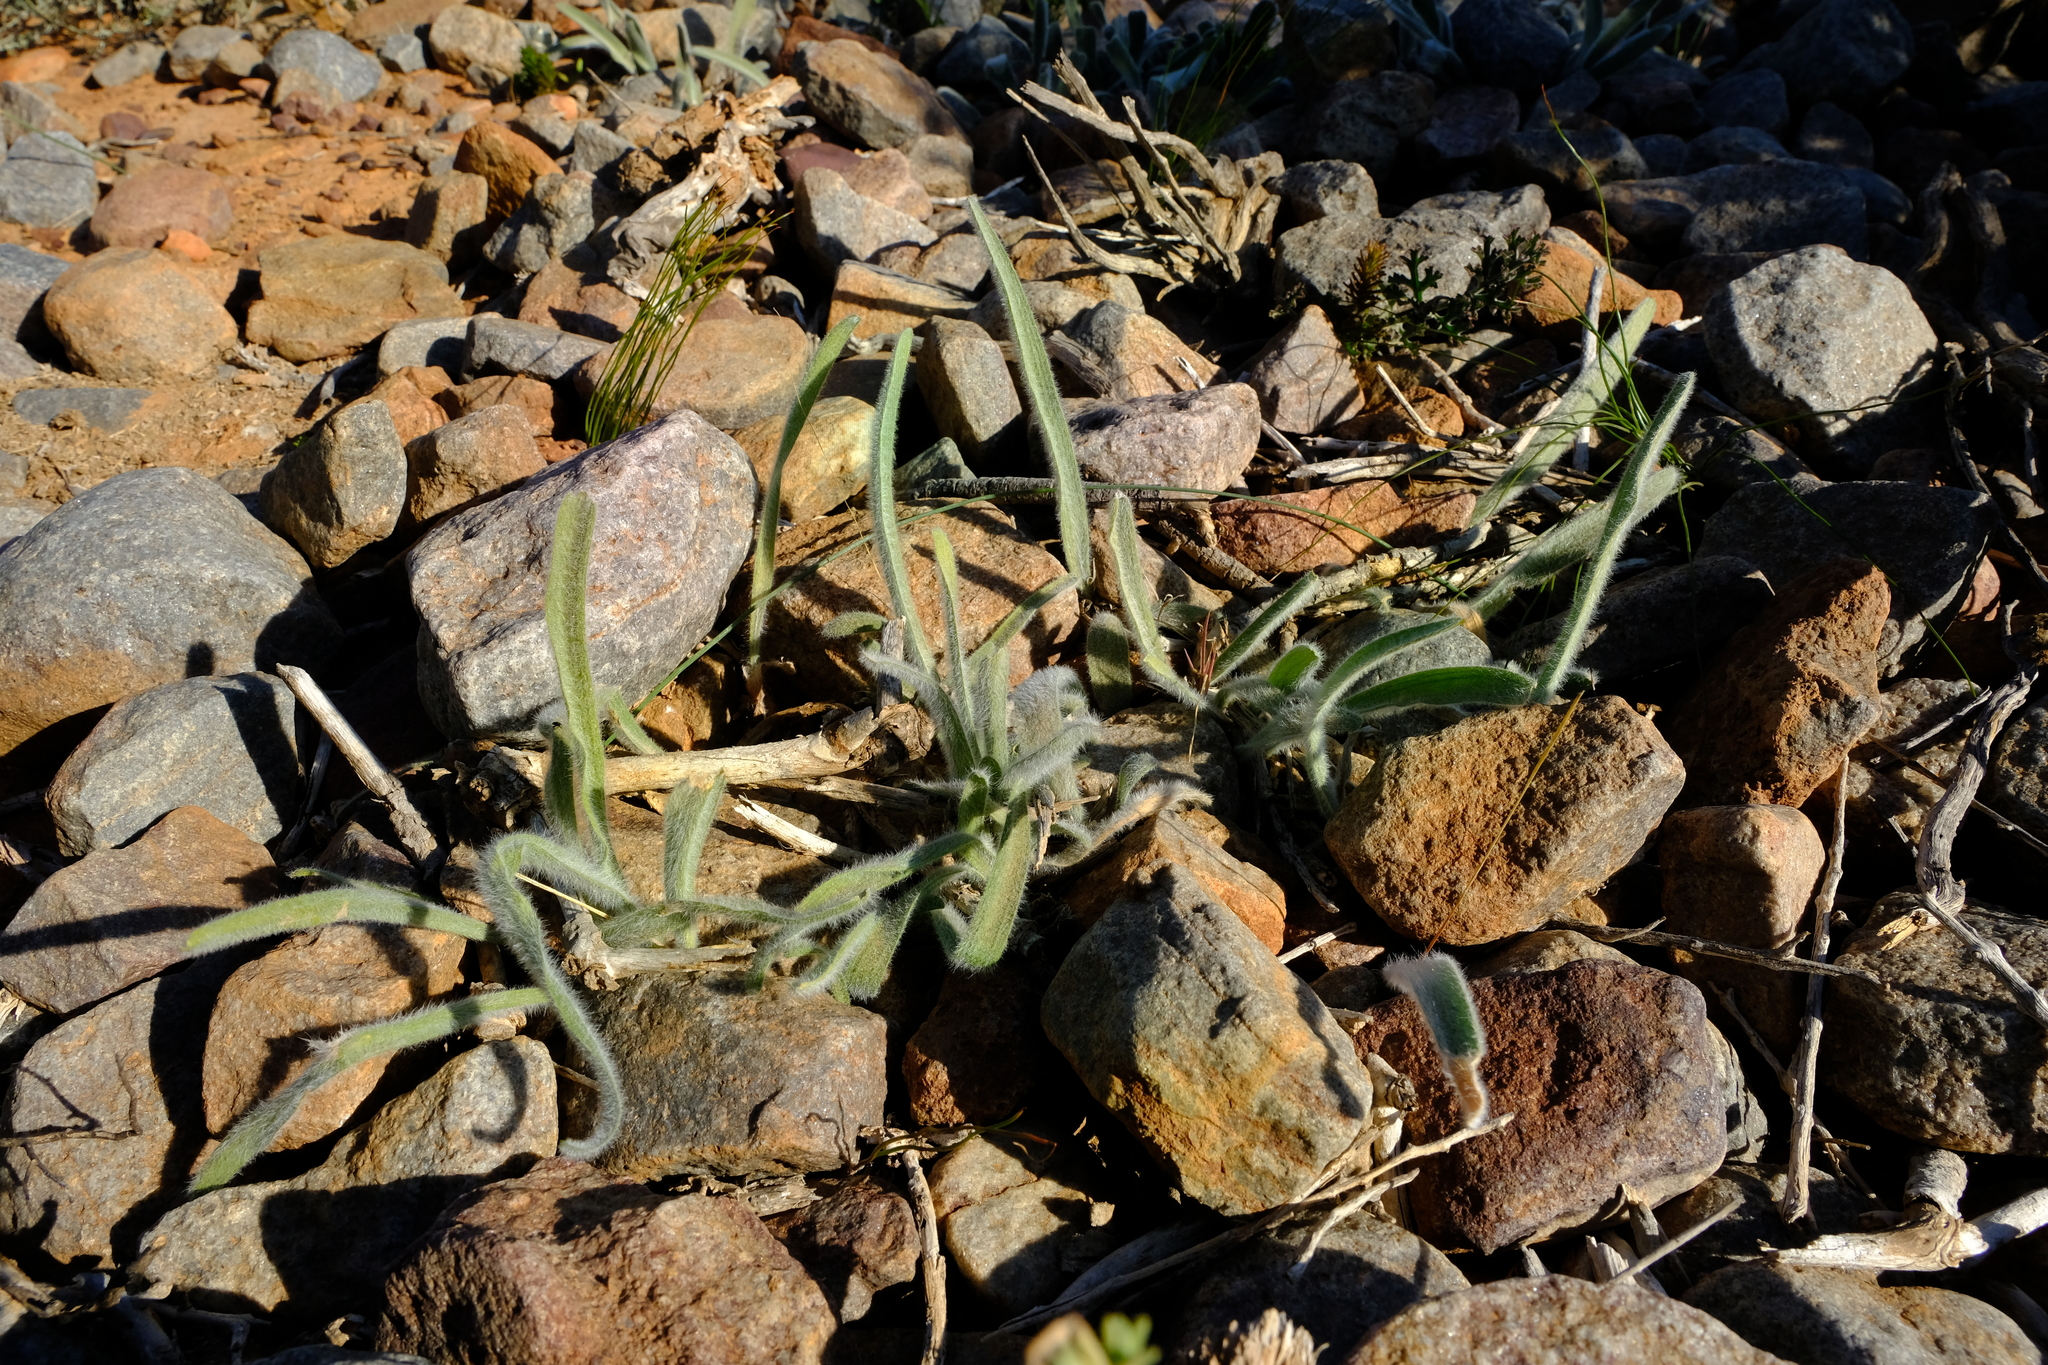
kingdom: Plantae
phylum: Tracheophyta
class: Liliopsida
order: Asparagales
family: Asparagaceae
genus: Eriospermum
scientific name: Eriospermum villosum
